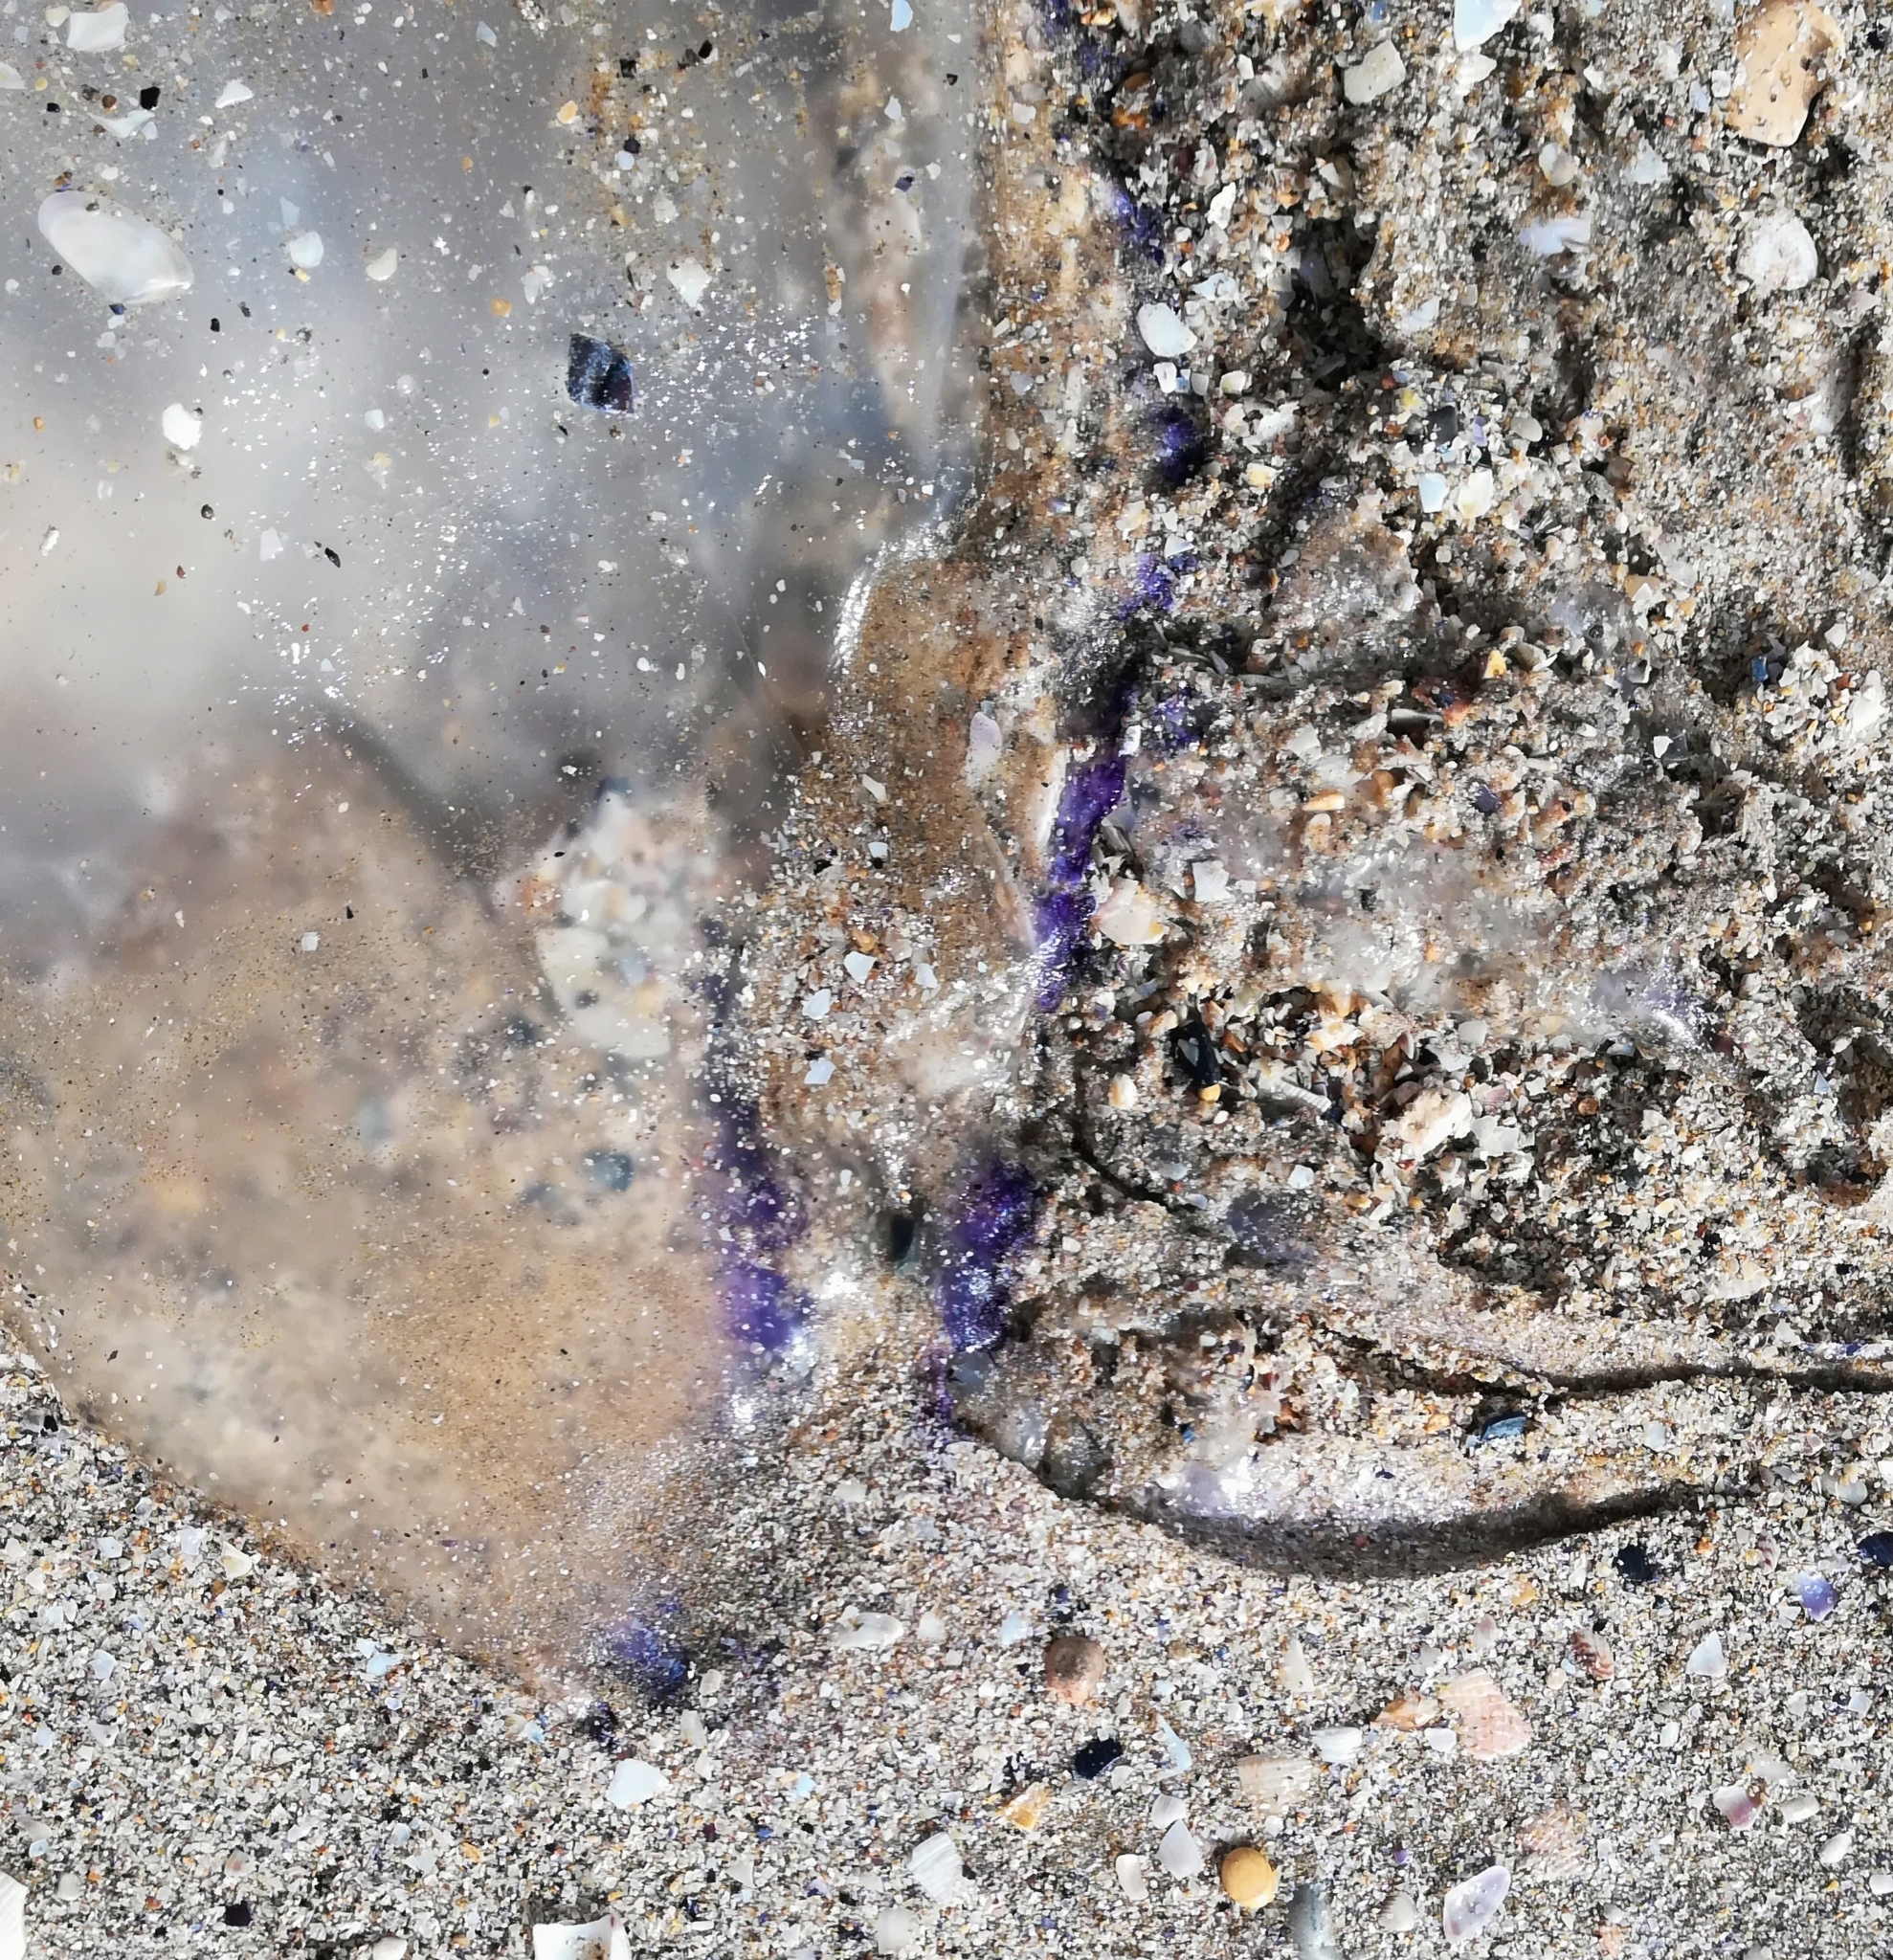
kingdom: Animalia
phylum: Cnidaria
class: Scyphozoa
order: Rhizostomeae
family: Rhizostomatidae
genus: Rhizostoma
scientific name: Rhizostoma pulmo
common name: Barrel jellyfish
